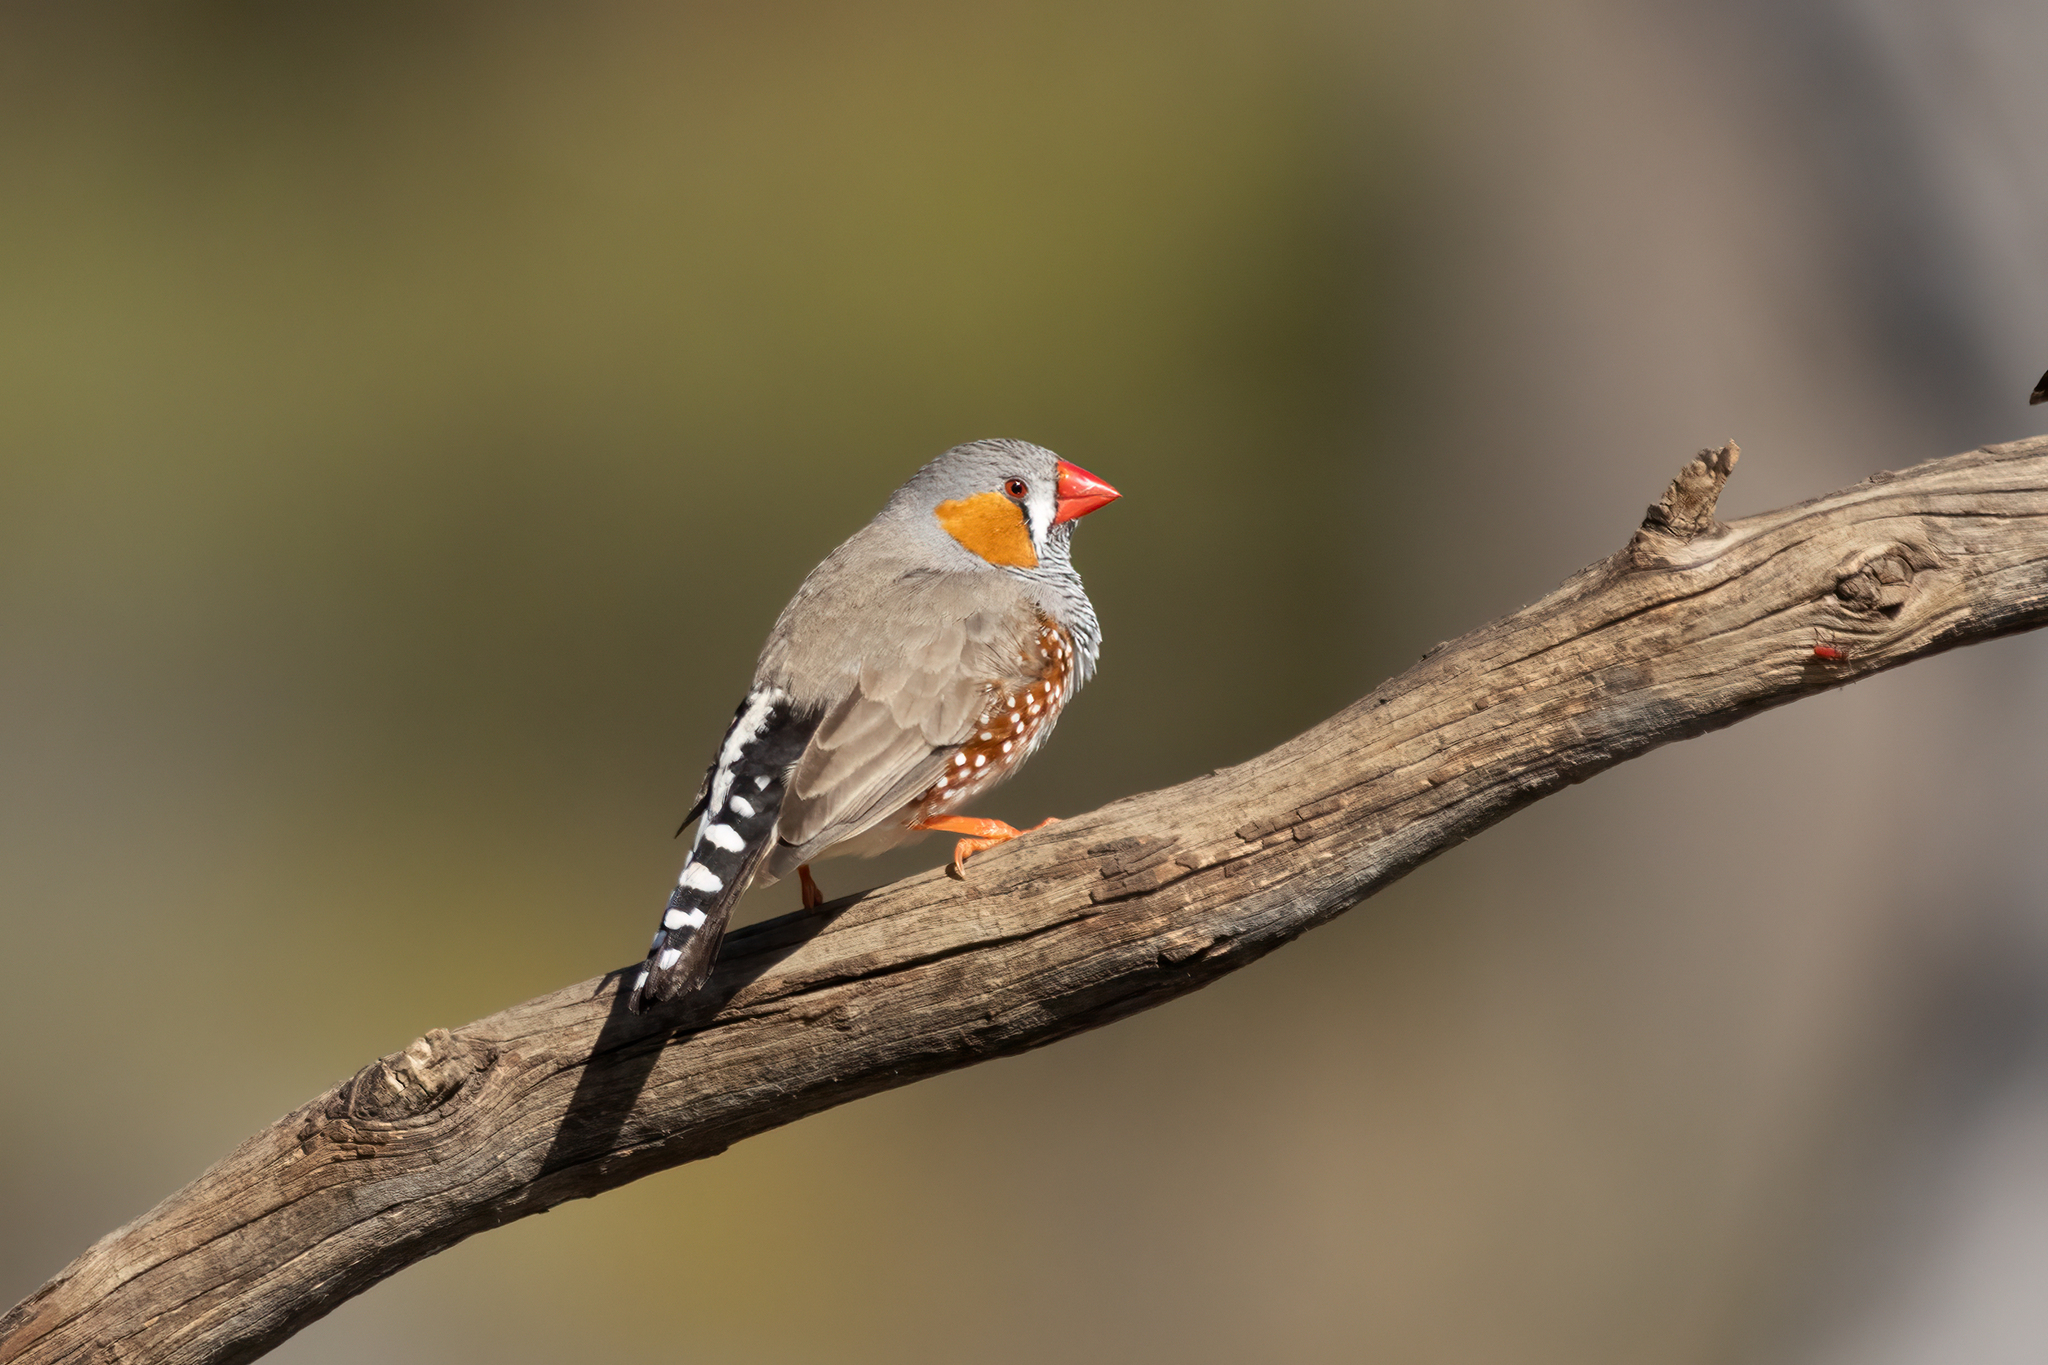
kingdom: Animalia
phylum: Chordata
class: Aves
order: Passeriformes
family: Estrildidae
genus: Taeniopygia
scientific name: Taeniopygia guttata
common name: Zebra finch
